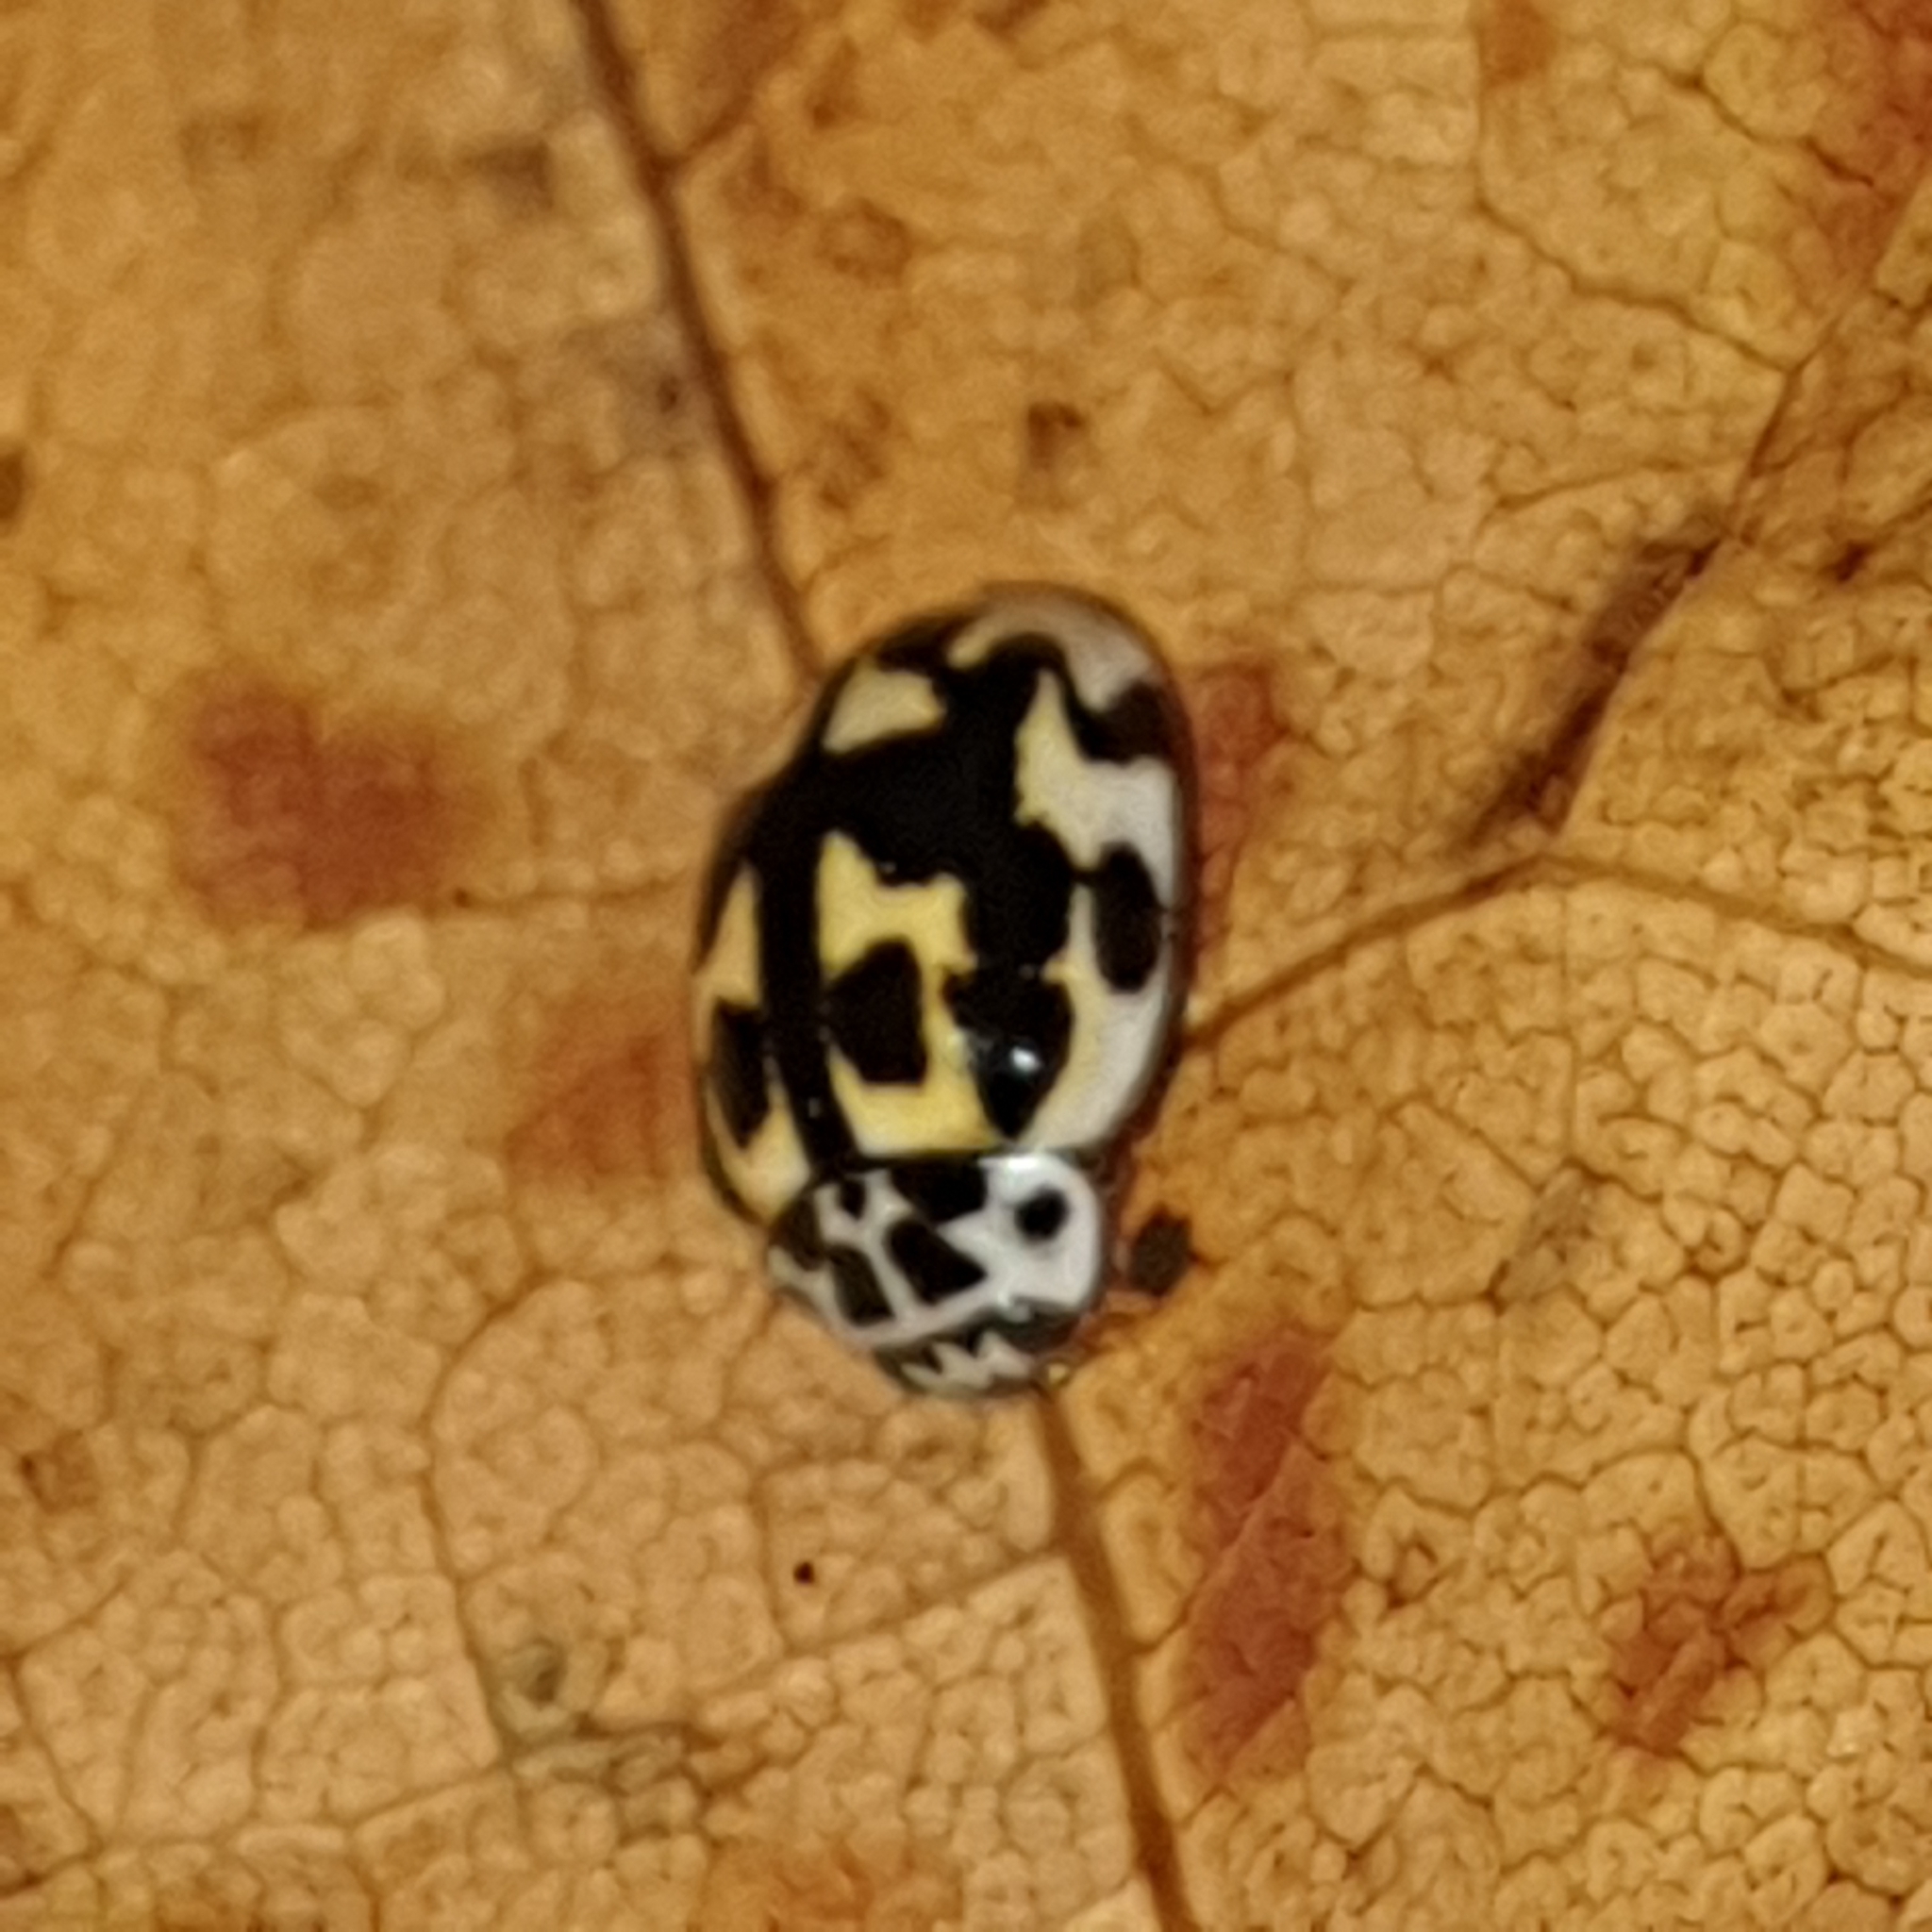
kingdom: Animalia
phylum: Arthropoda
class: Insecta
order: Coleoptera
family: Coccinellidae
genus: Oenopia
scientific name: Oenopia conglobata
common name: Ladybird beetle
